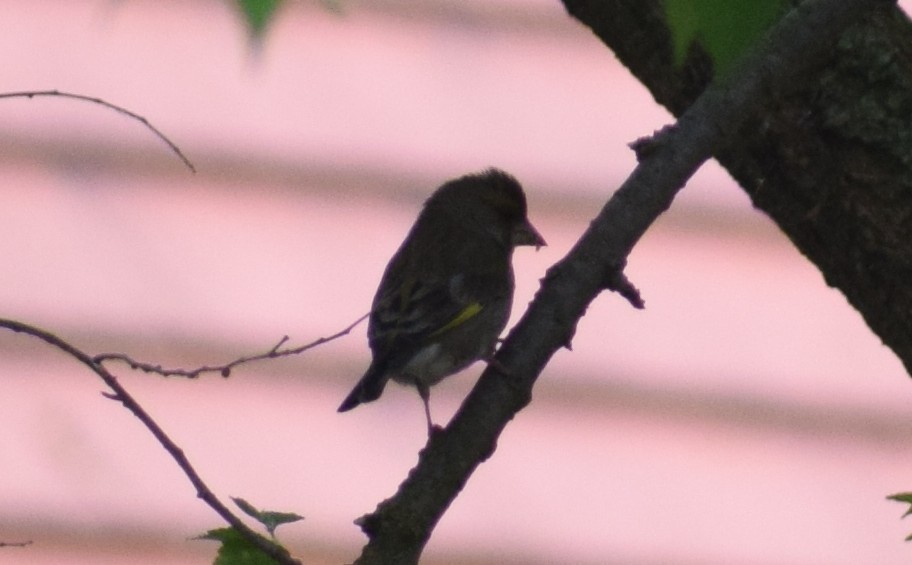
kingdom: Plantae
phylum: Tracheophyta
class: Liliopsida
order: Poales
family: Poaceae
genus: Chloris
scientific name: Chloris chloris
